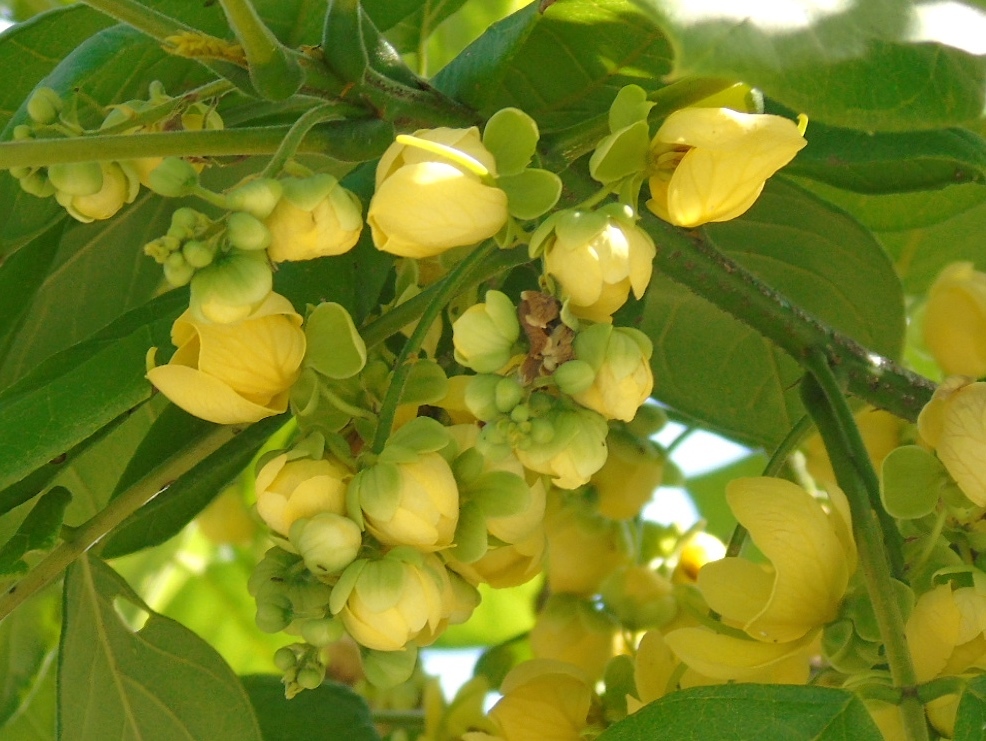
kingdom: Plantae
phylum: Tracheophyta
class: Magnoliopsida
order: Fabales
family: Fabaceae
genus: Senna
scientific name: Senna atomaria
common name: Flor de san jose
